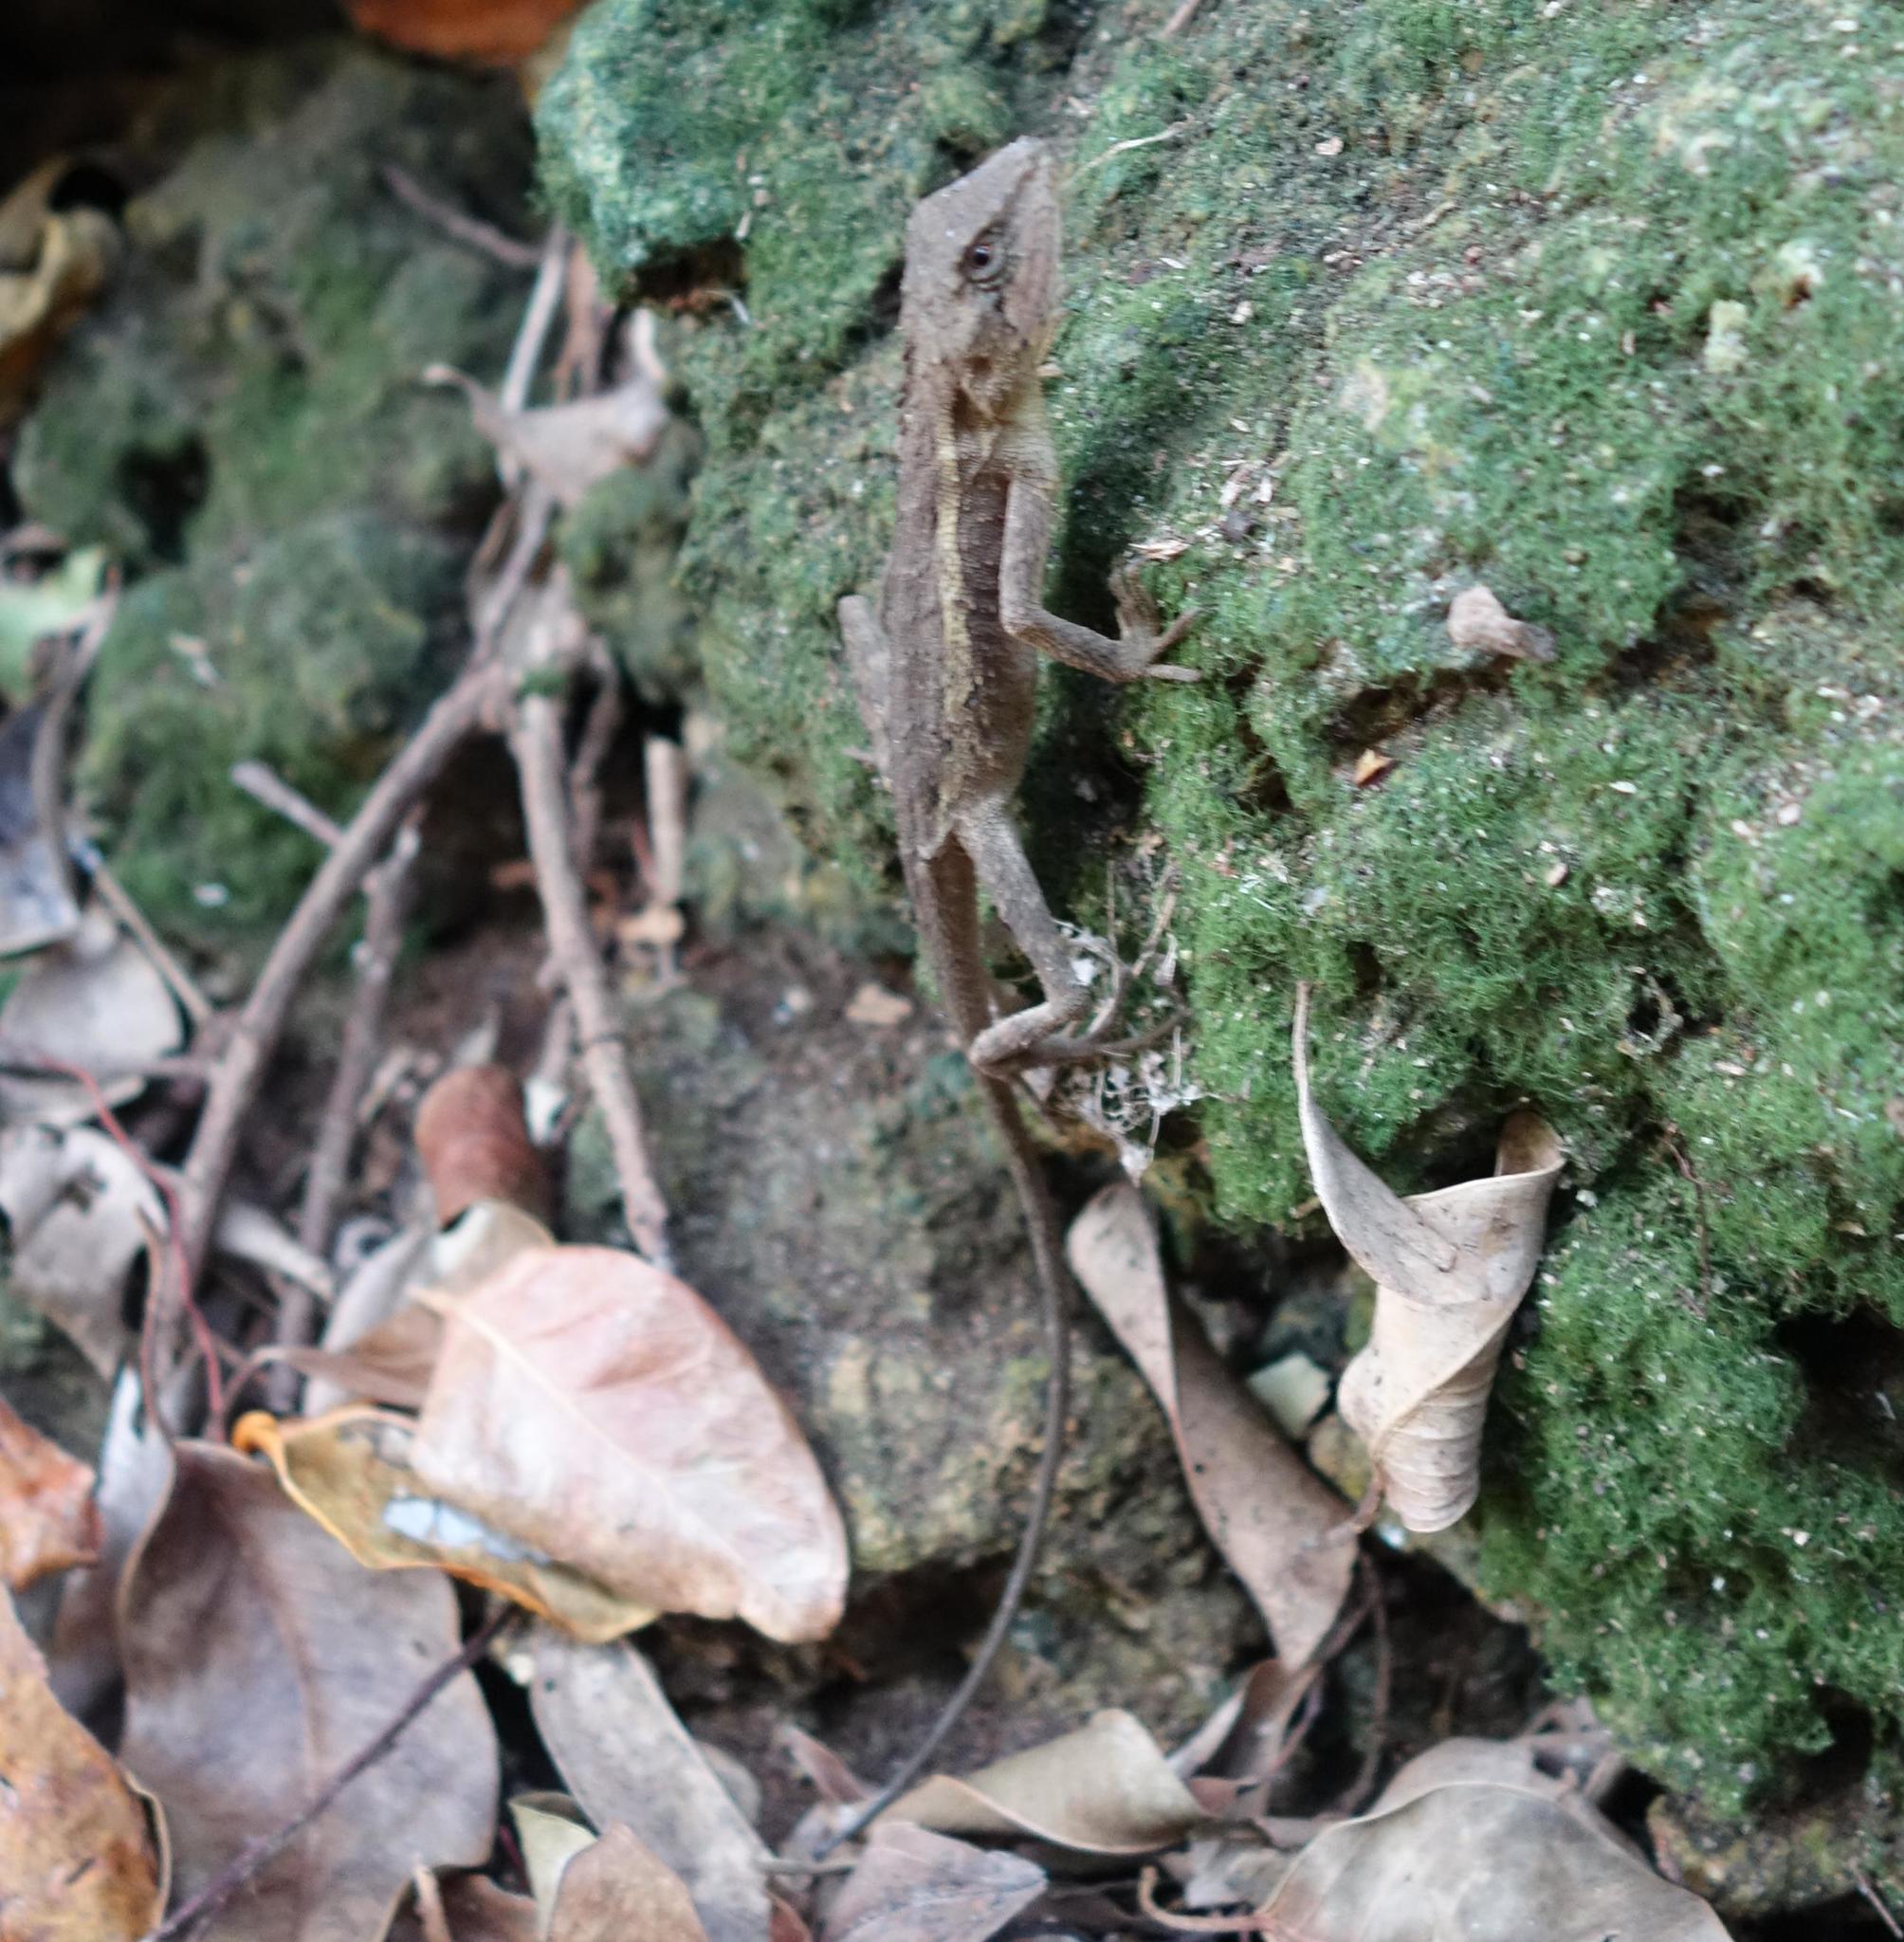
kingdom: Animalia
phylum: Chordata
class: Squamata
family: Agamidae
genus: Diploderma
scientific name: Diploderma swinhonis
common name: Taiwan japalure
